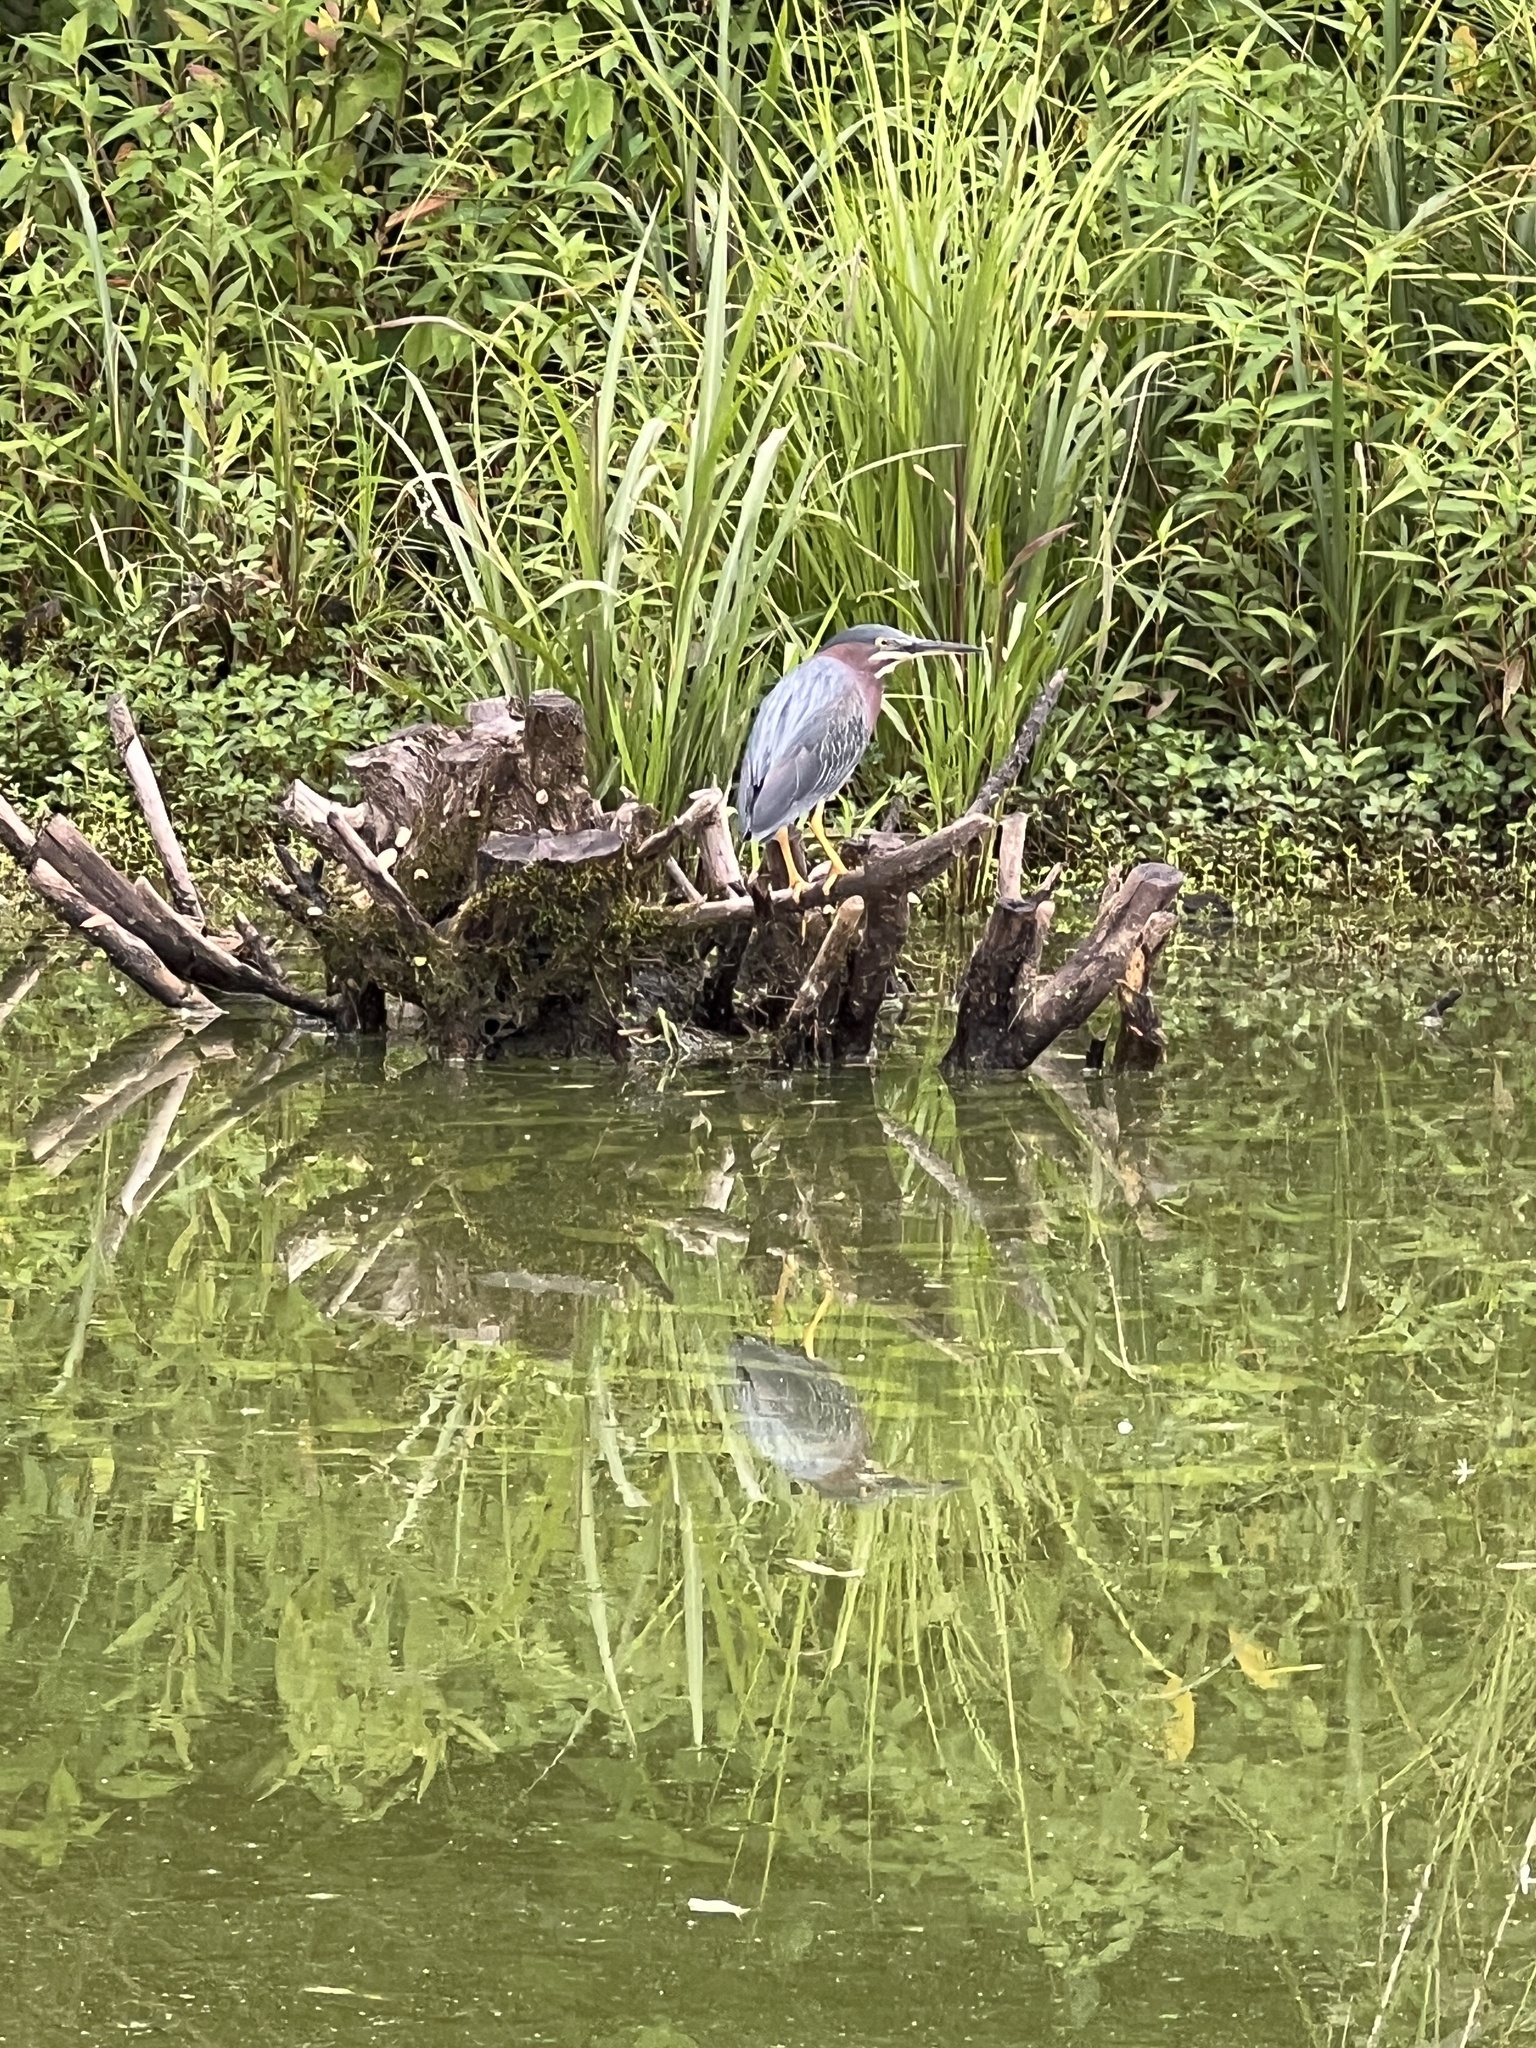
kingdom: Animalia
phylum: Chordata
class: Aves
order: Pelecaniformes
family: Ardeidae
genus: Butorides
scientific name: Butorides virescens
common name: Green heron
